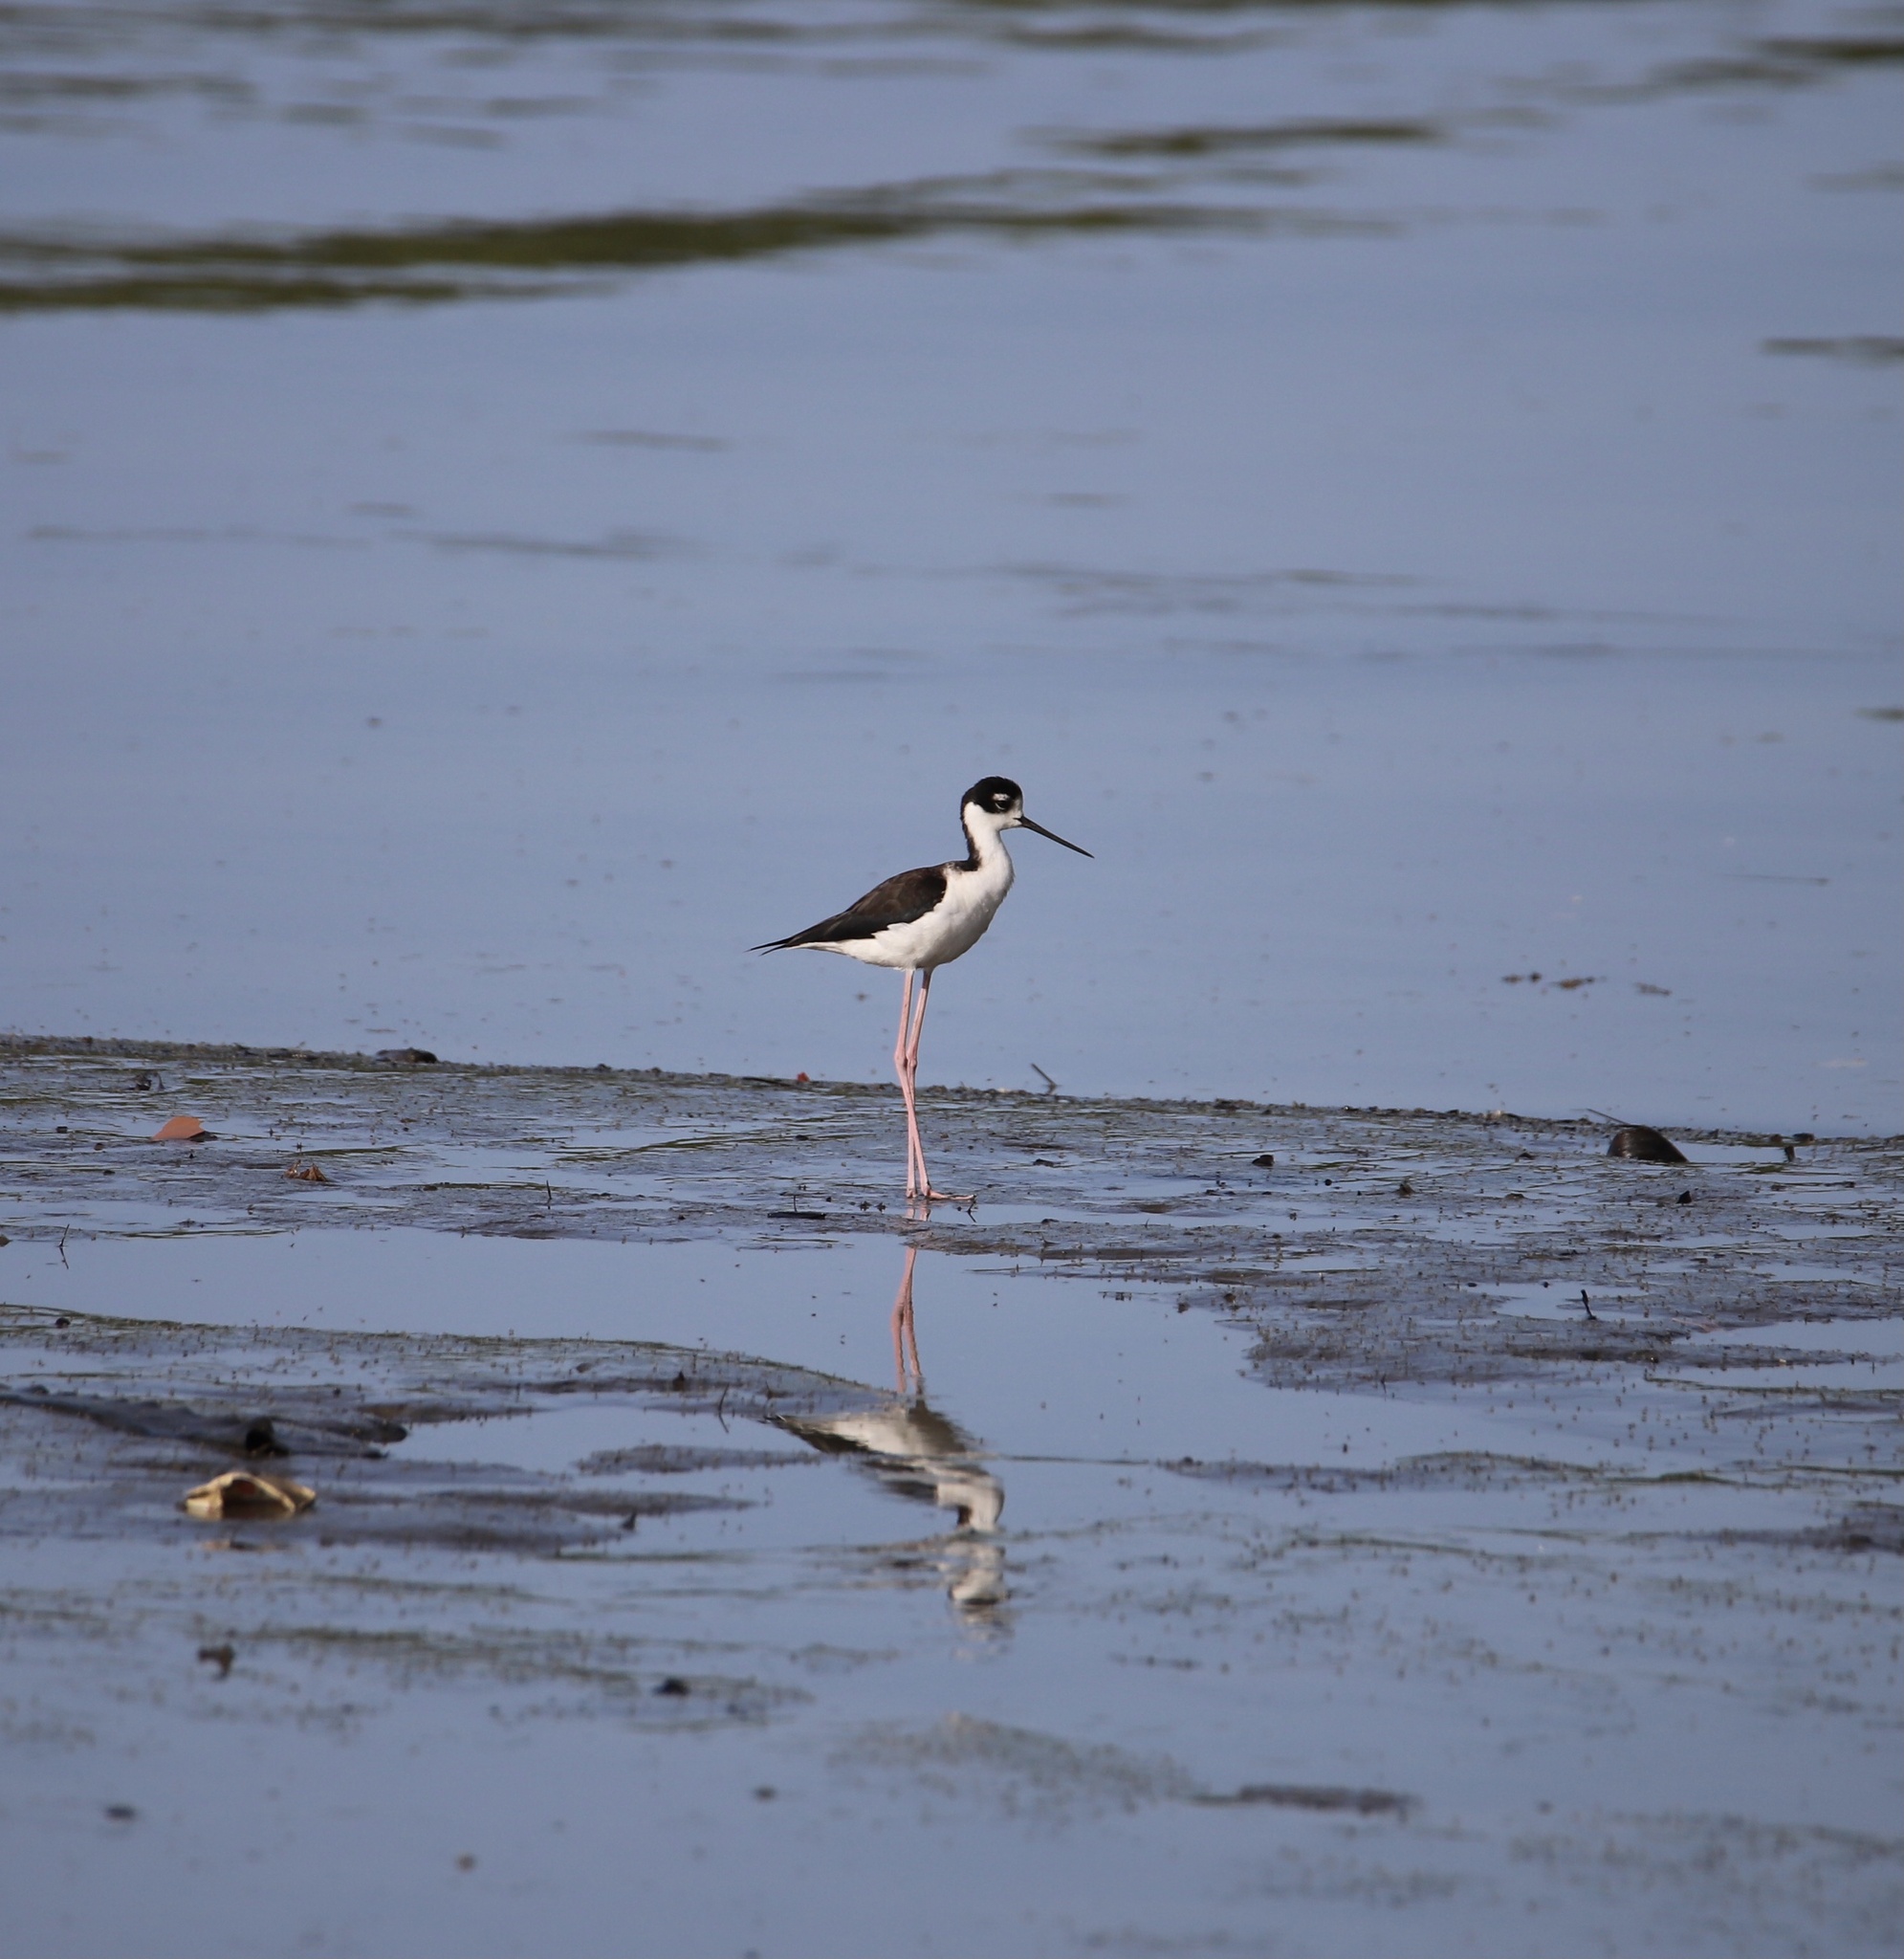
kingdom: Animalia
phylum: Chordata
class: Aves
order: Charadriiformes
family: Recurvirostridae
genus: Himantopus
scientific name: Himantopus mexicanus
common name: Black-necked stilt
